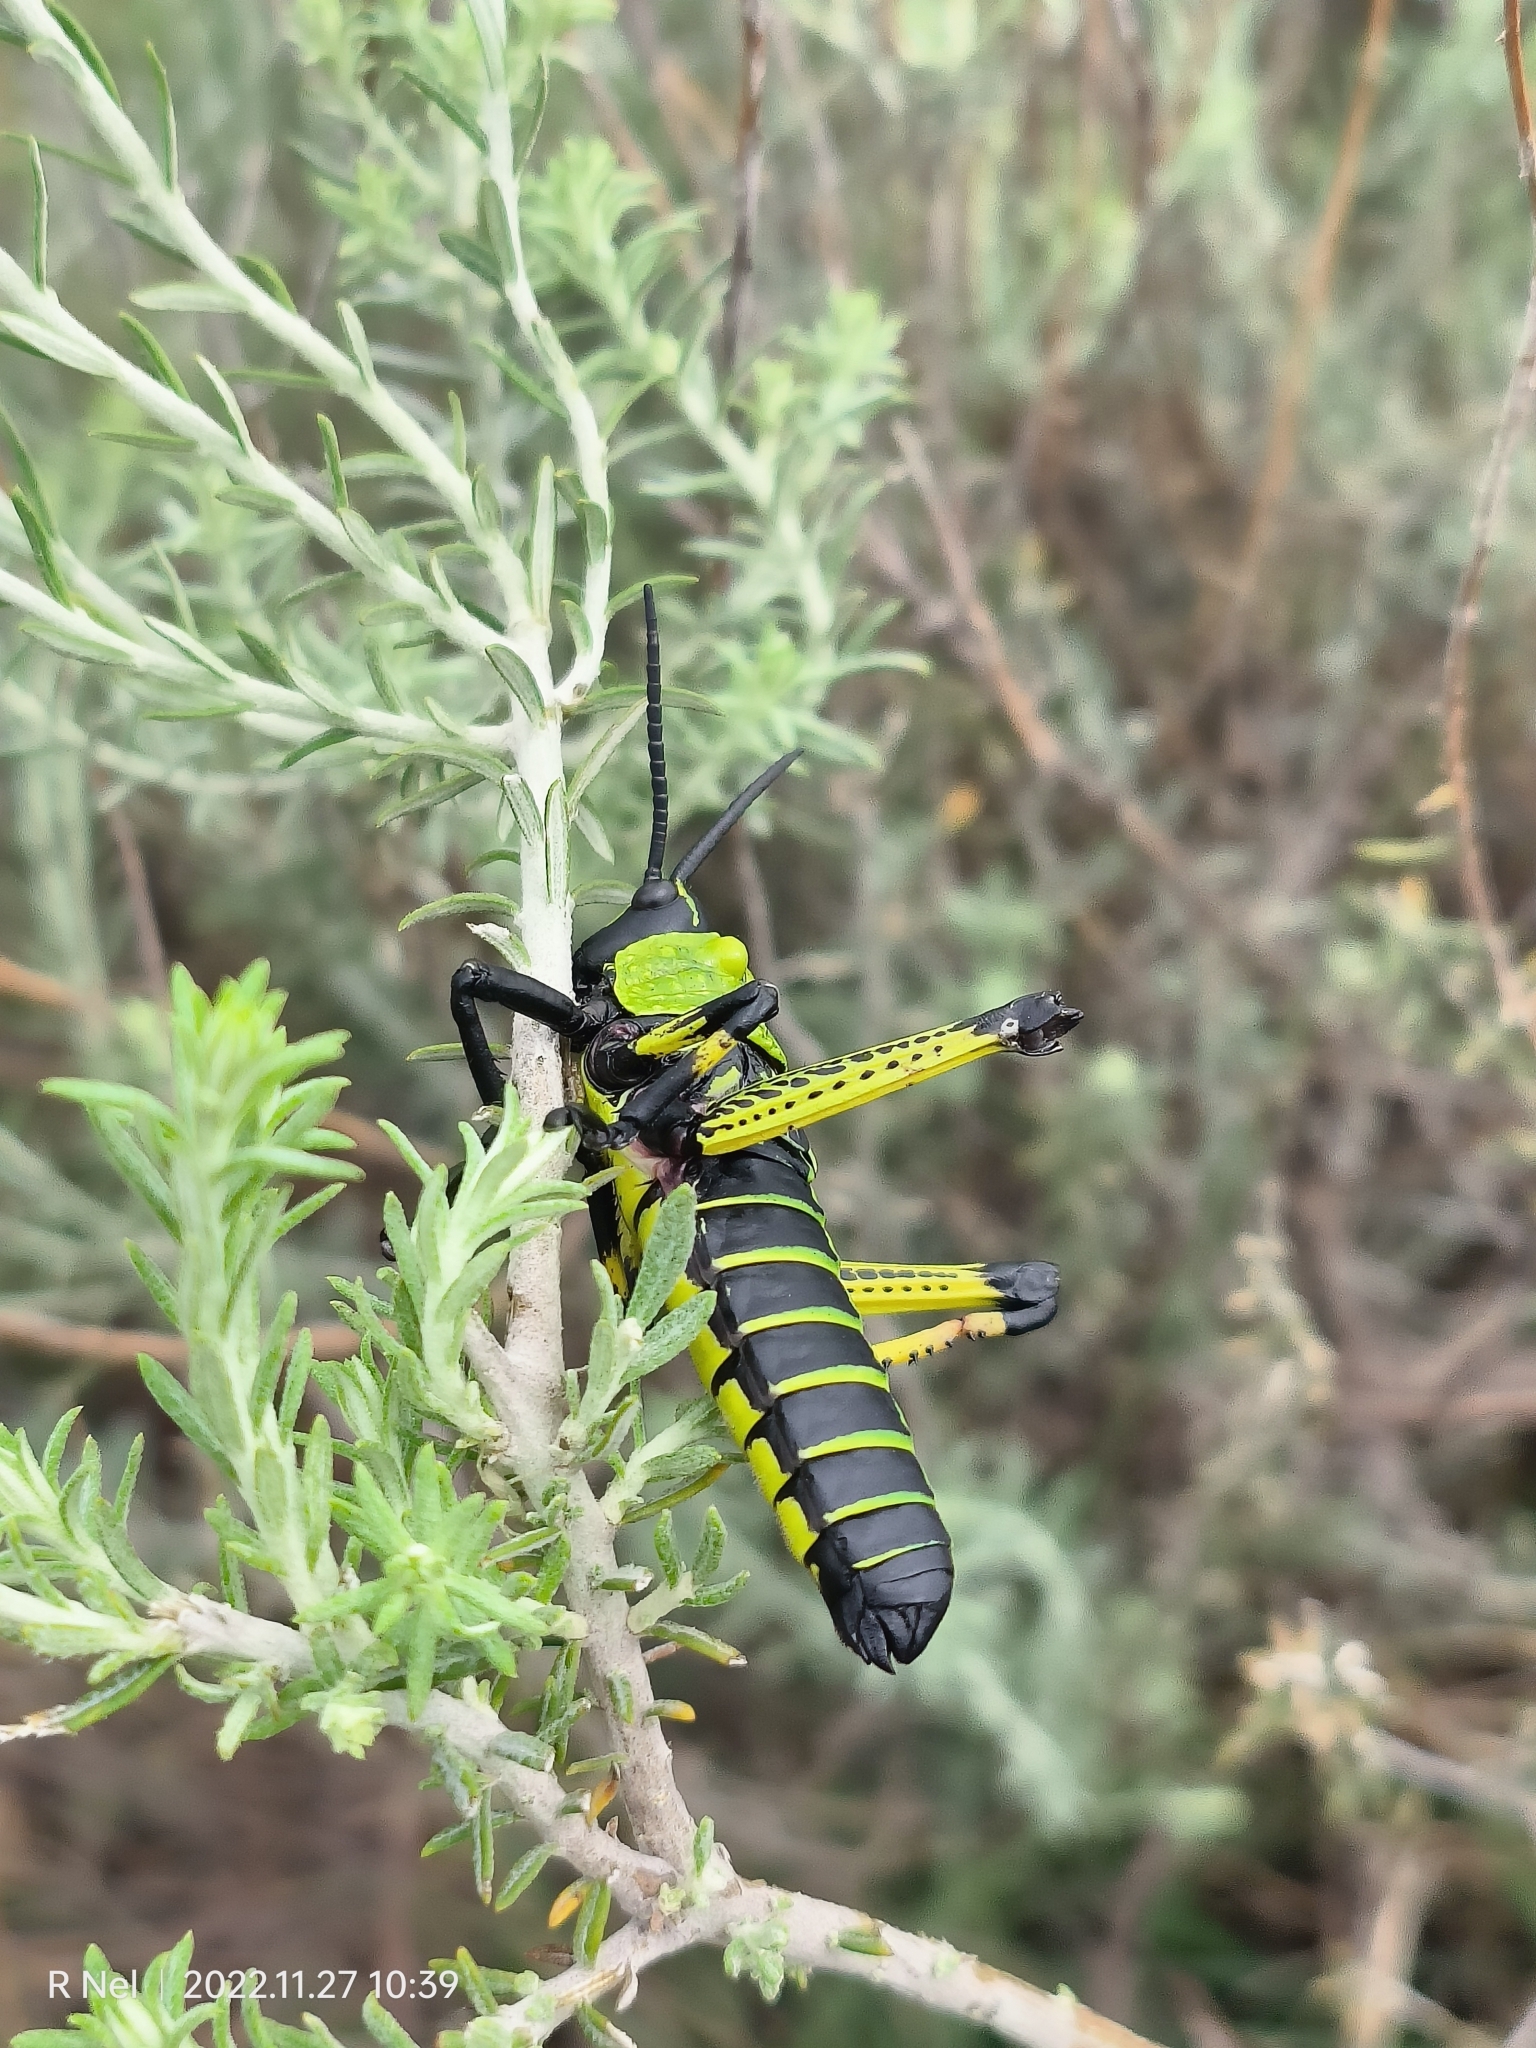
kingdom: Animalia
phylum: Arthropoda
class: Insecta
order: Orthoptera
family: Pyrgomorphidae
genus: Phymateus
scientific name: Phymateus leprosus
